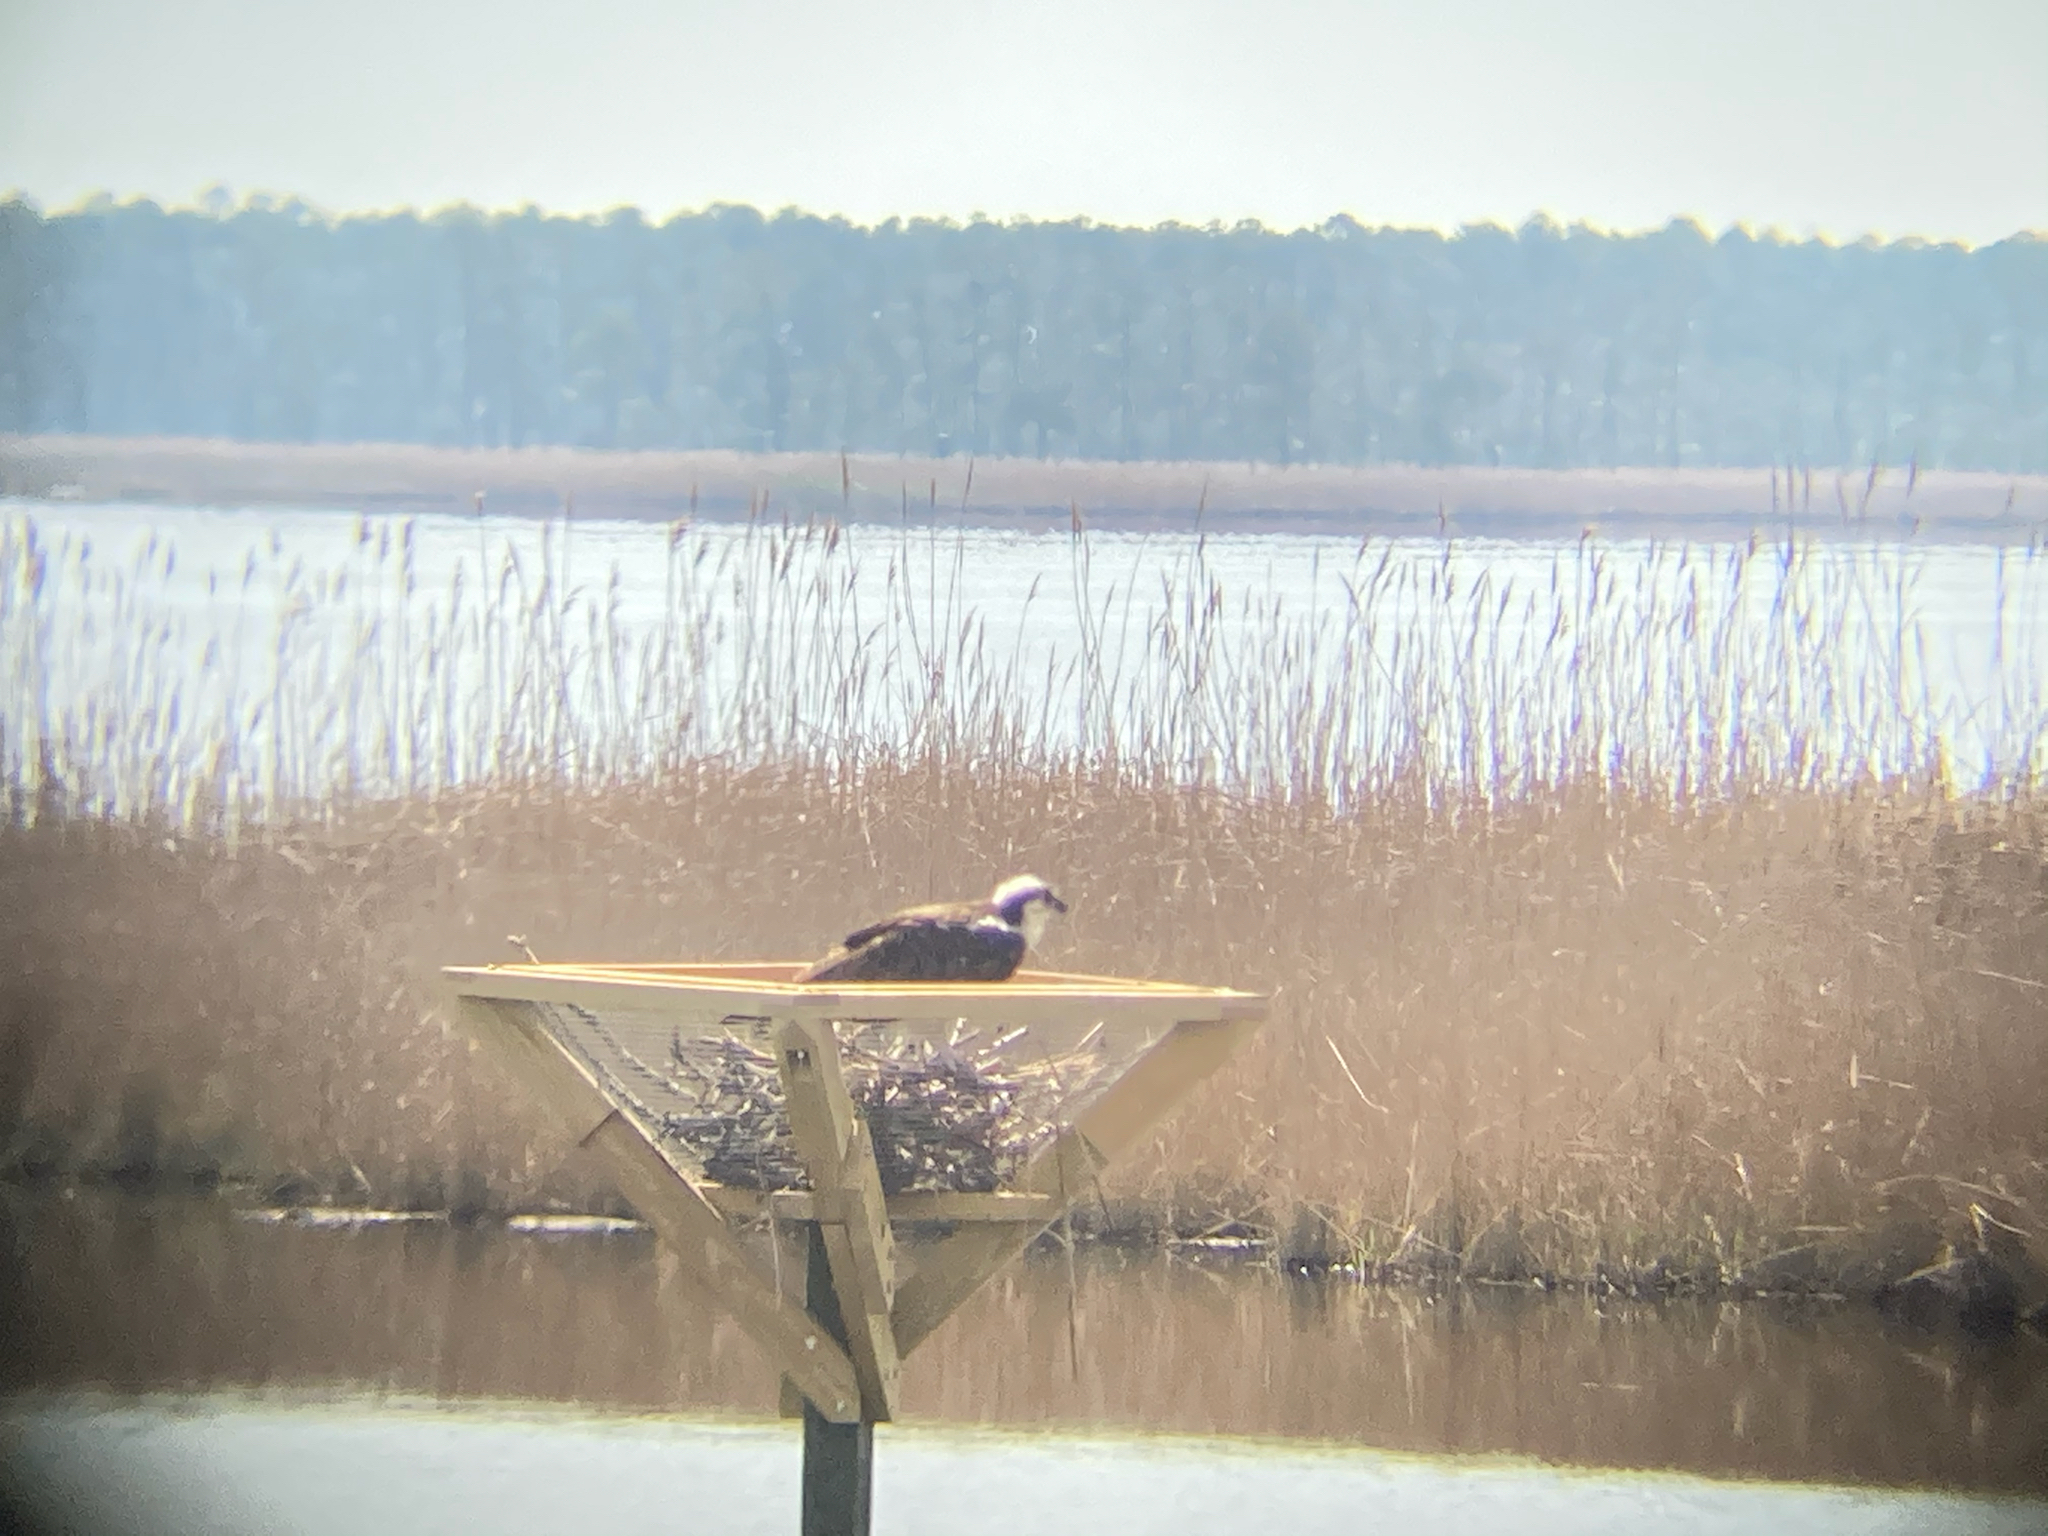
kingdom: Animalia
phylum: Chordata
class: Aves
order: Accipitriformes
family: Pandionidae
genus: Pandion
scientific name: Pandion haliaetus
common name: Osprey
